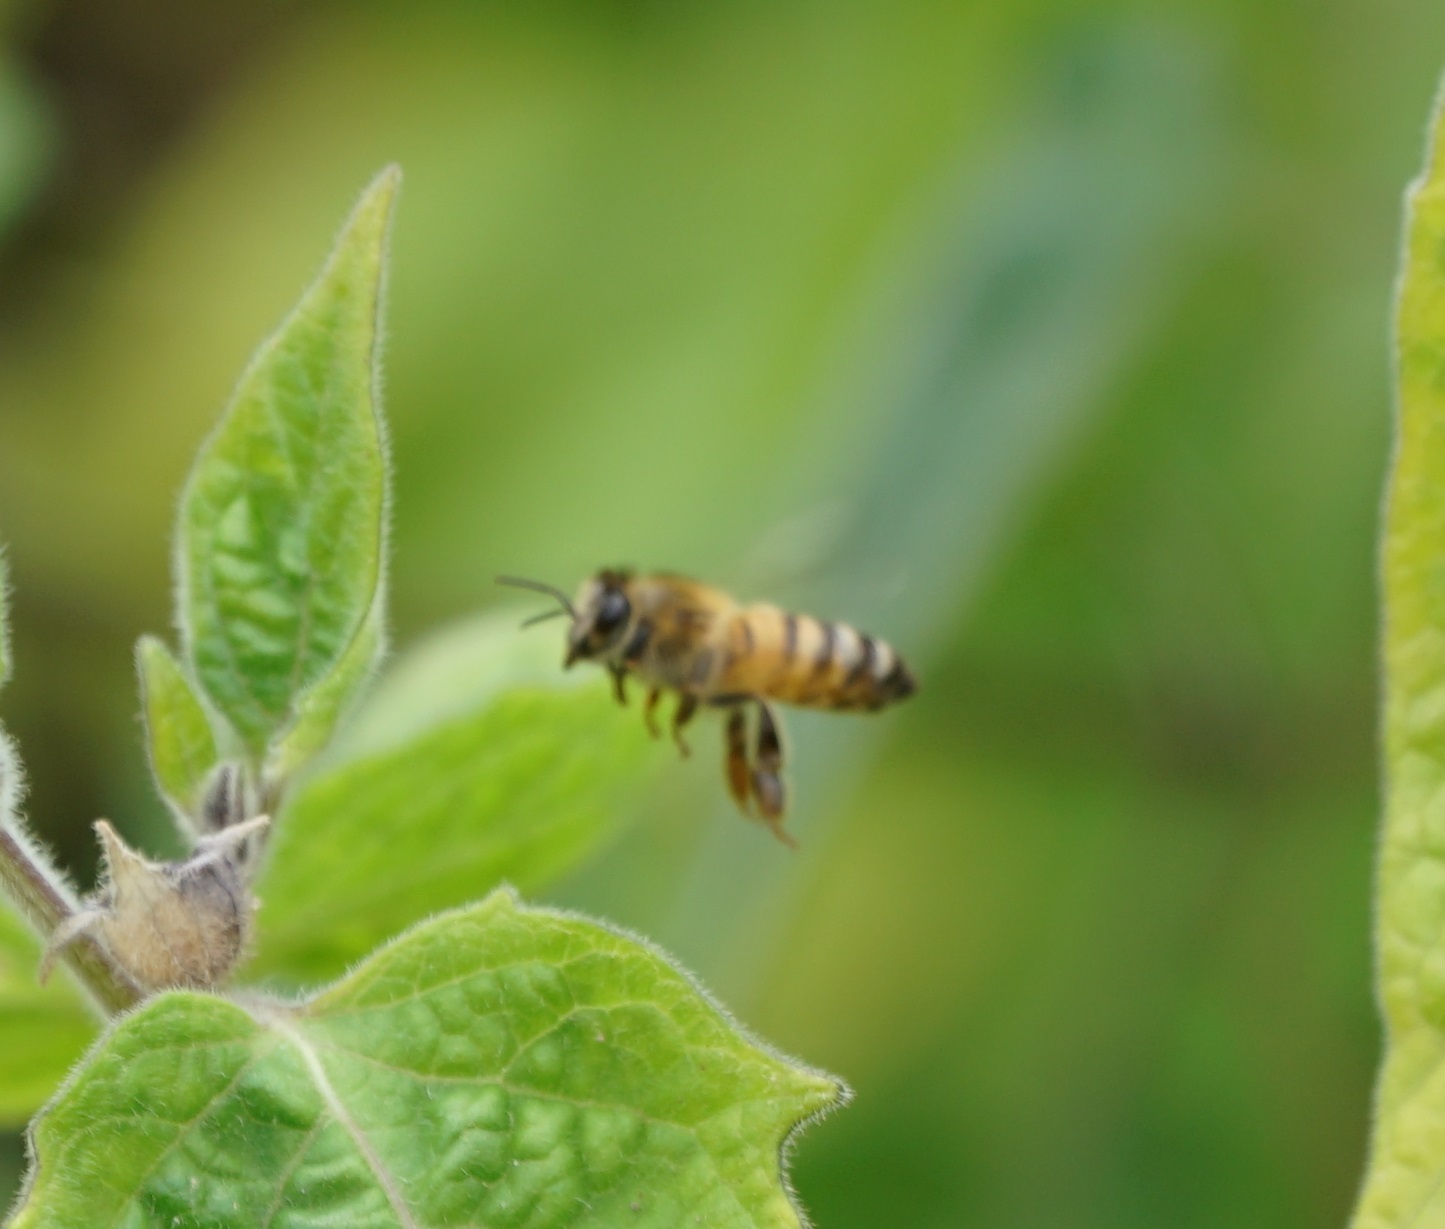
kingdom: Animalia
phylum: Arthropoda
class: Insecta
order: Hymenoptera
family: Apidae
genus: Apis
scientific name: Apis mellifera
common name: Honey bee
